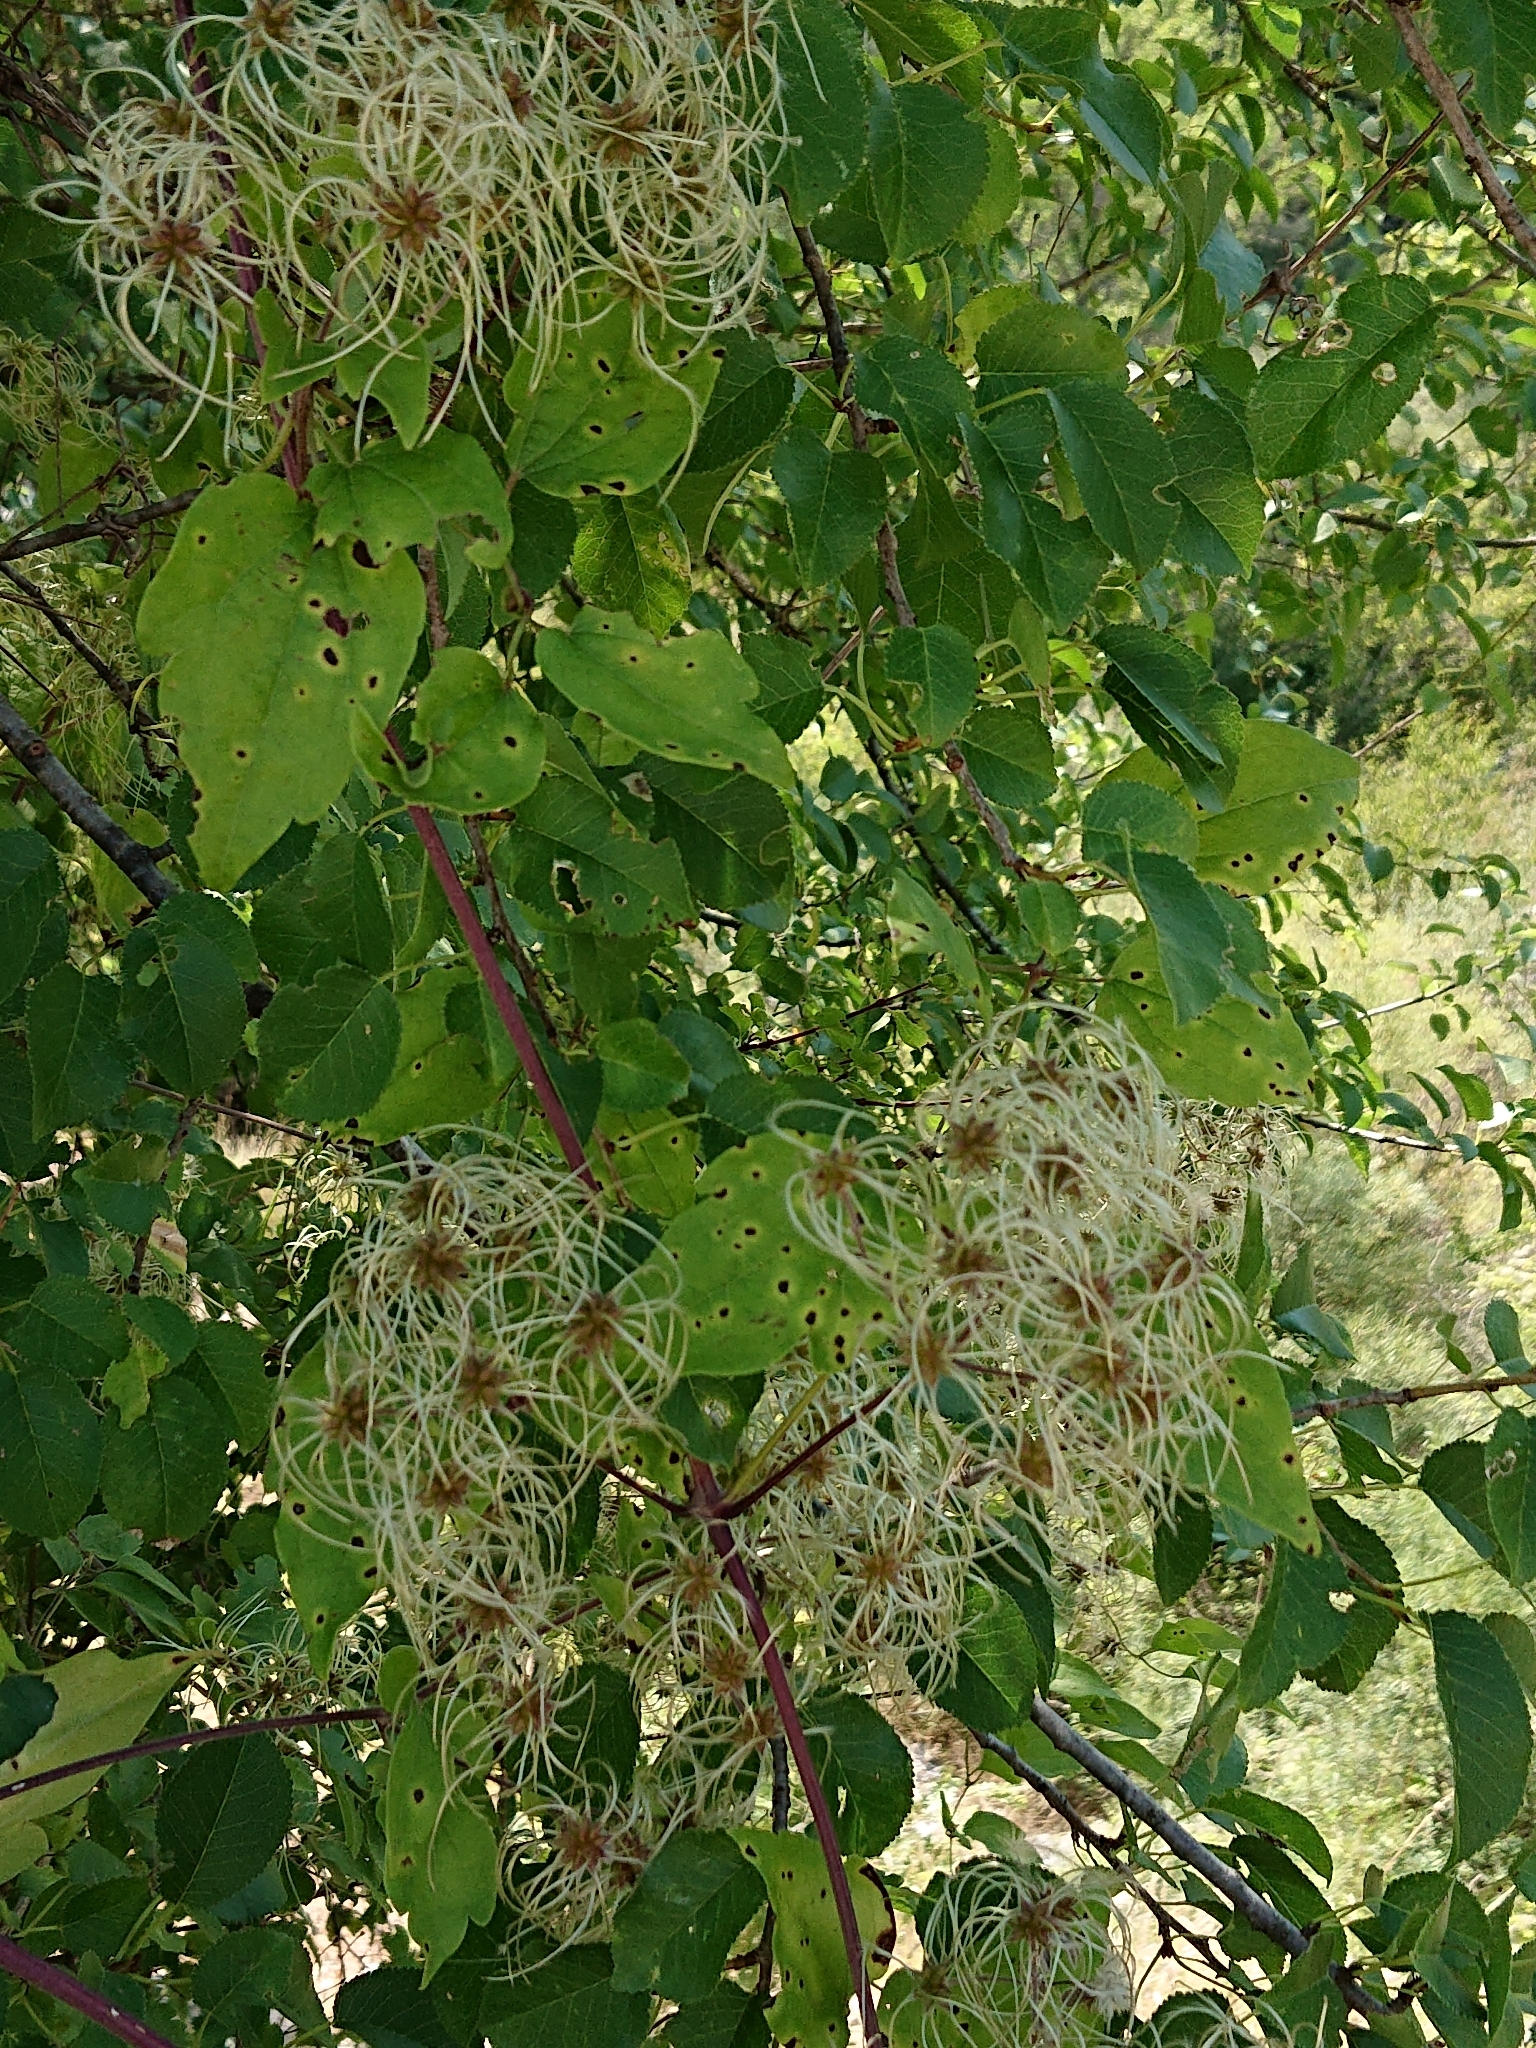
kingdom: Plantae
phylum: Tracheophyta
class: Magnoliopsida
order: Ranunculales
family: Ranunculaceae
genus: Clematis
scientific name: Clematis vitalba
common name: Evergreen clematis
